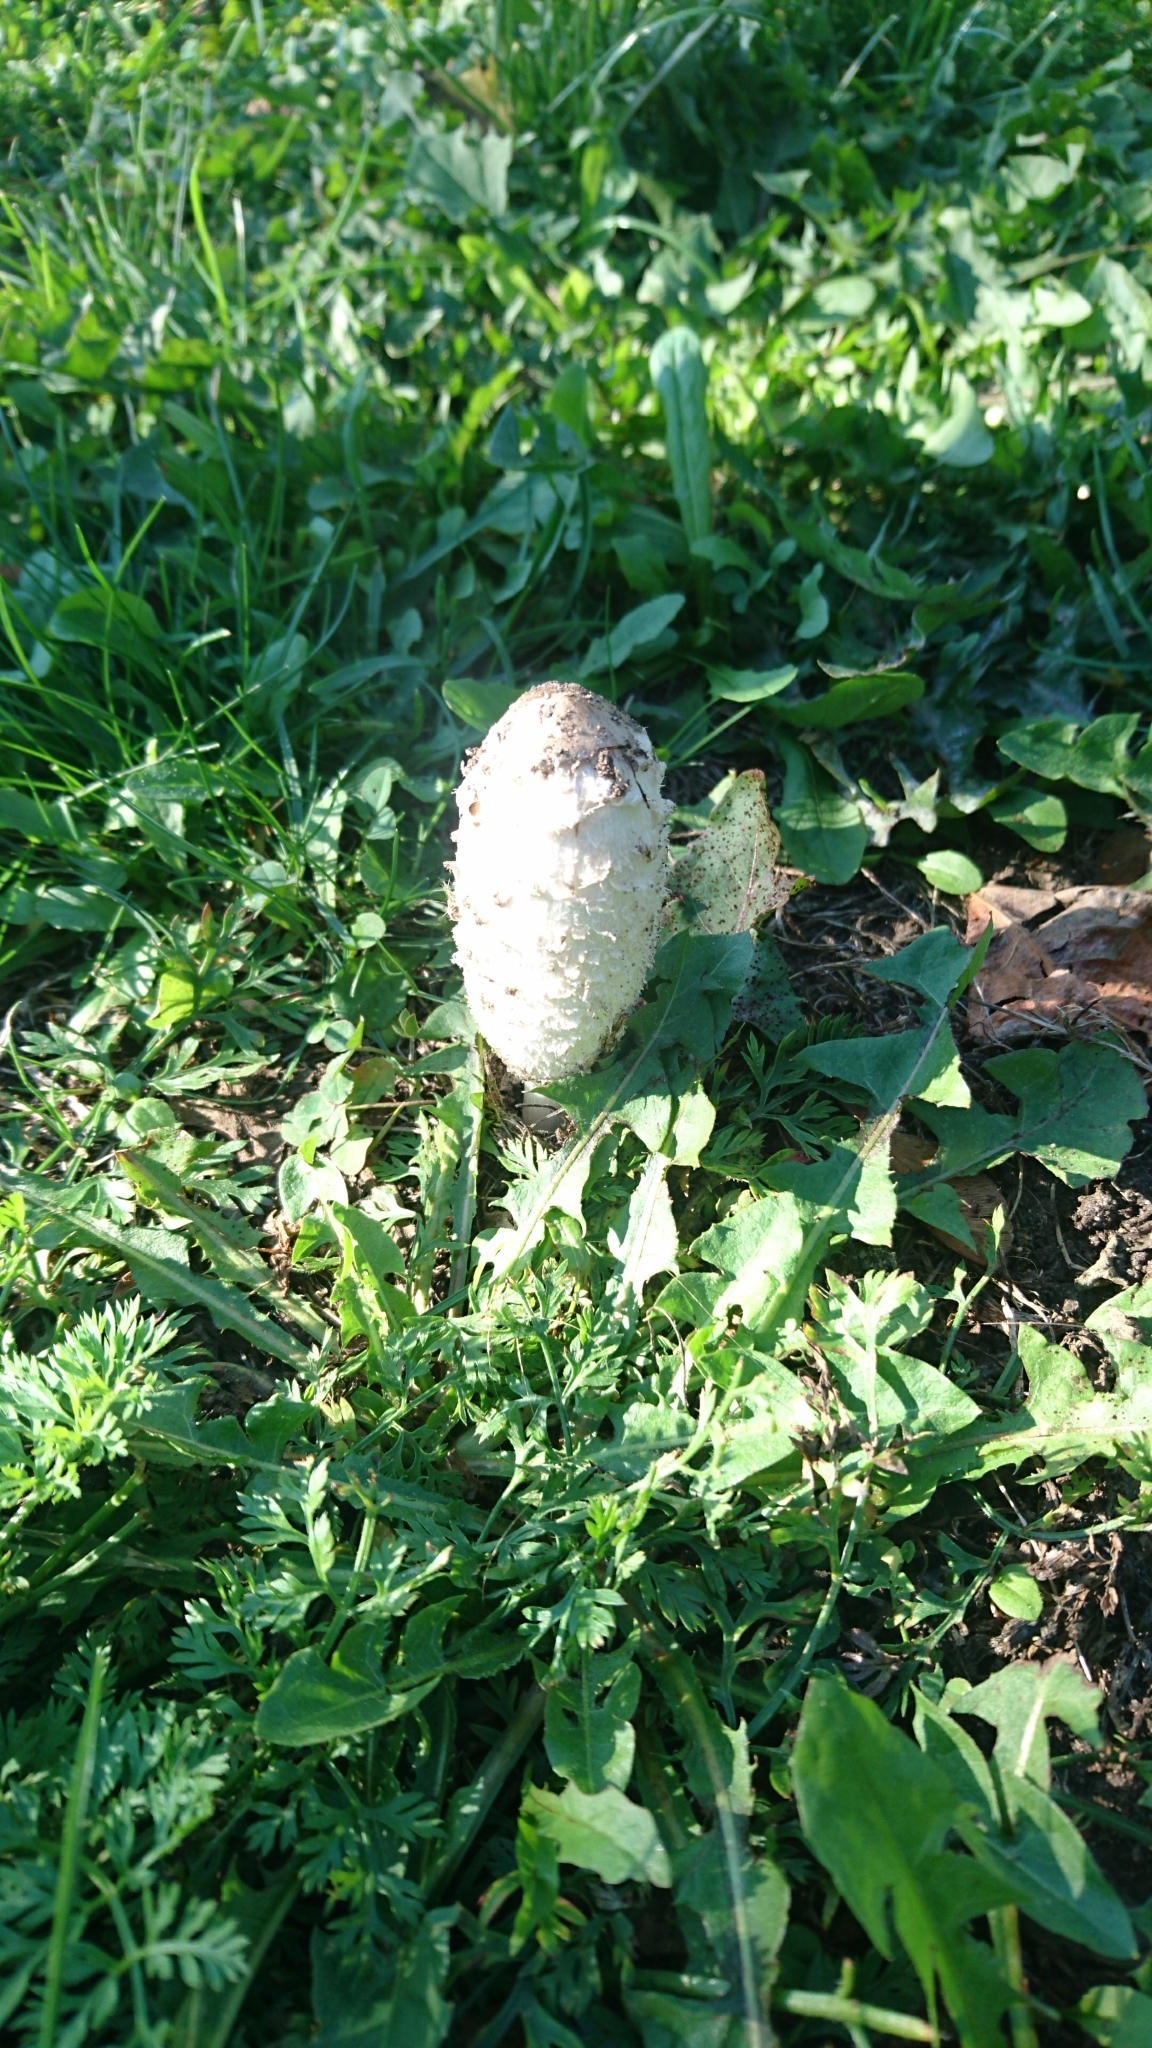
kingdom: Fungi
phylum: Basidiomycota
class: Agaricomycetes
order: Agaricales
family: Agaricaceae
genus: Coprinus
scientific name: Coprinus comatus
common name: Lawyer's wig
